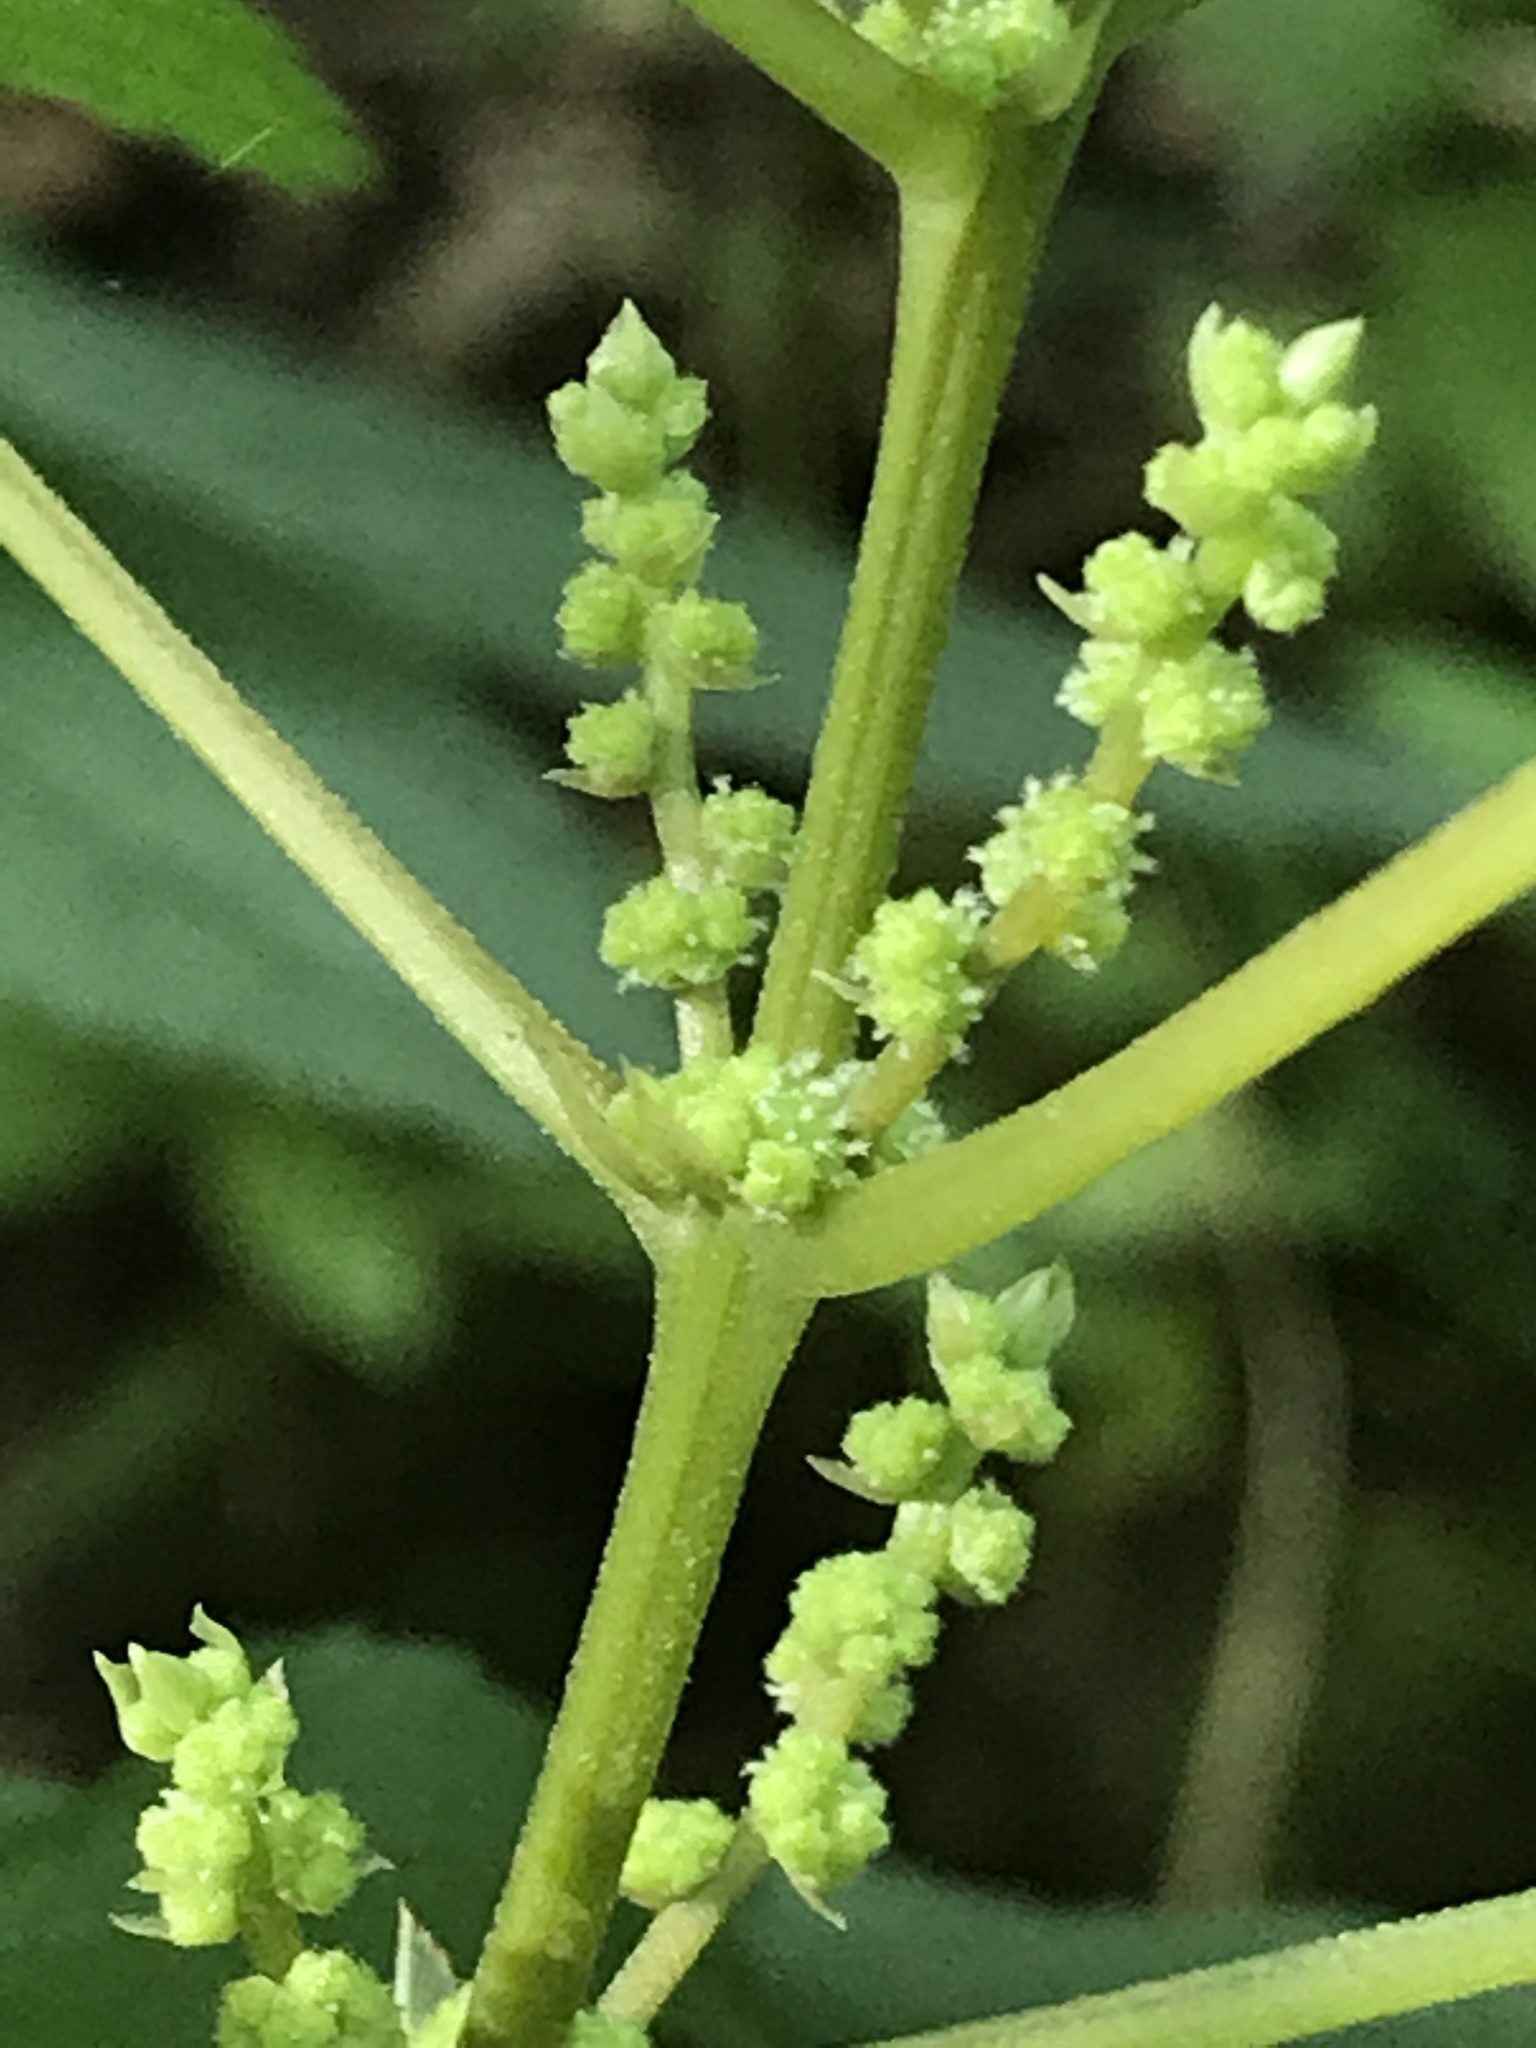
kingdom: Plantae
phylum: Tracheophyta
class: Magnoliopsida
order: Rosales
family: Urticaceae
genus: Boehmeria
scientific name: Boehmeria cylindrica
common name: Bog-hemp
